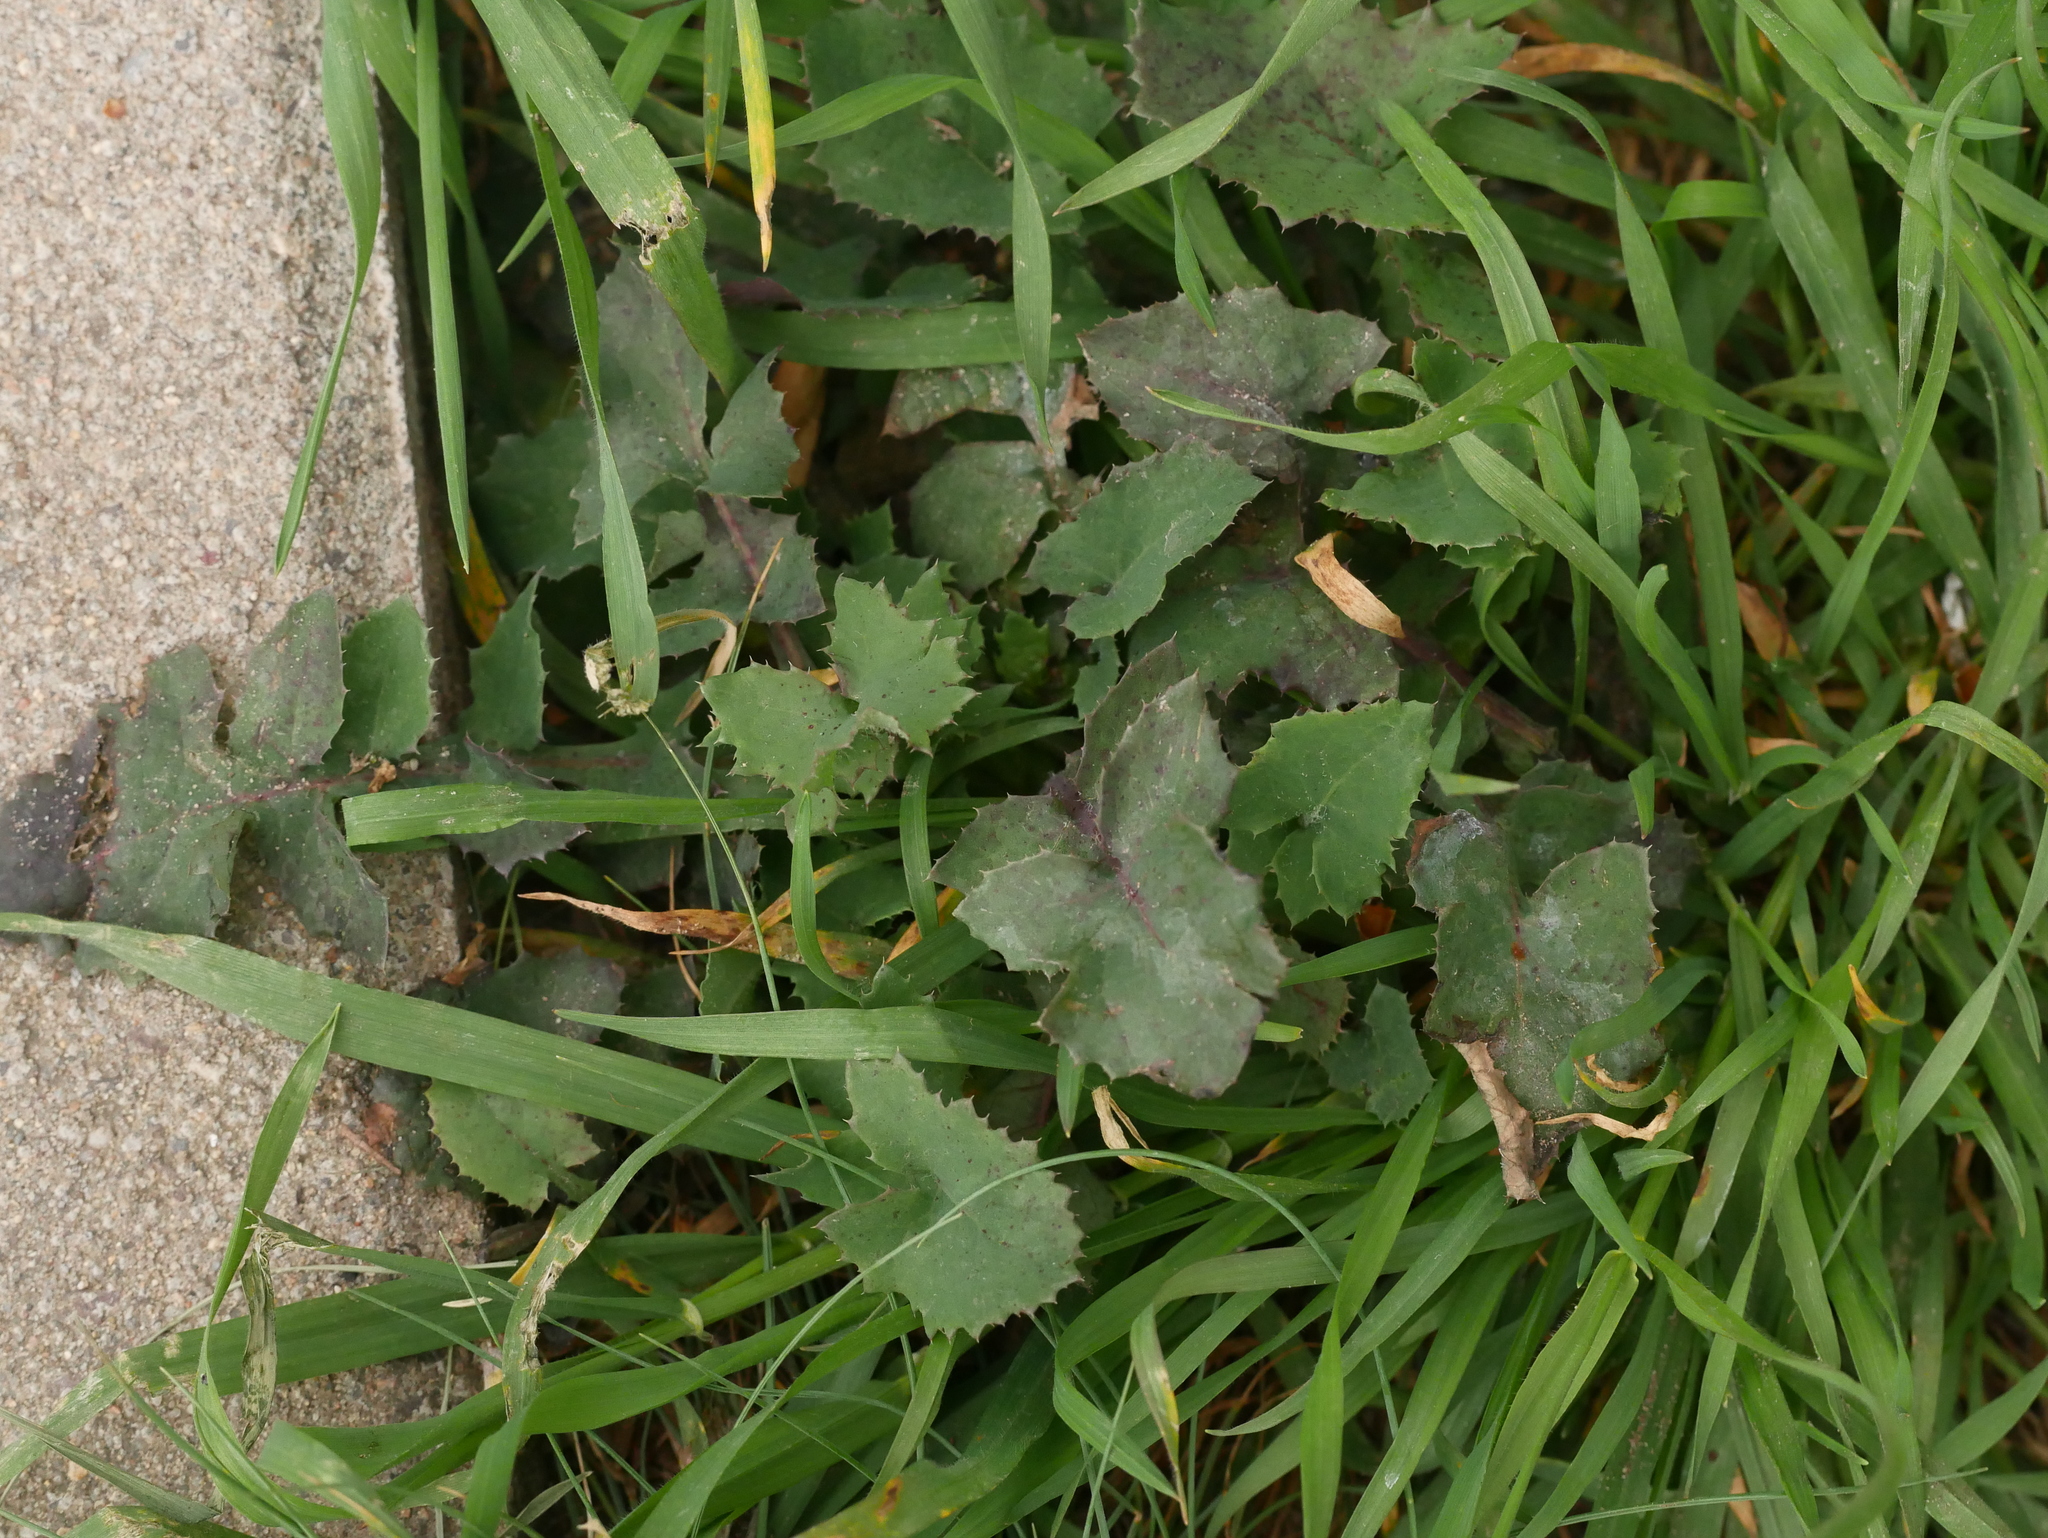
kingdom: Plantae
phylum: Tracheophyta
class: Magnoliopsida
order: Asterales
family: Asteraceae
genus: Sonchus
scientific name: Sonchus oleraceus
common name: Common sowthistle
